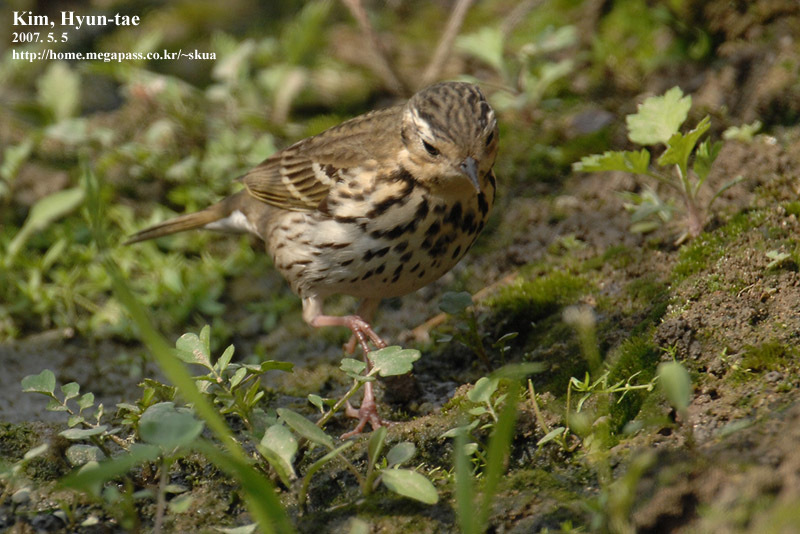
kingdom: Animalia
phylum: Chordata
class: Aves
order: Passeriformes
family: Motacillidae
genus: Anthus
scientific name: Anthus hodgsoni
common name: Olive-backed pipit
